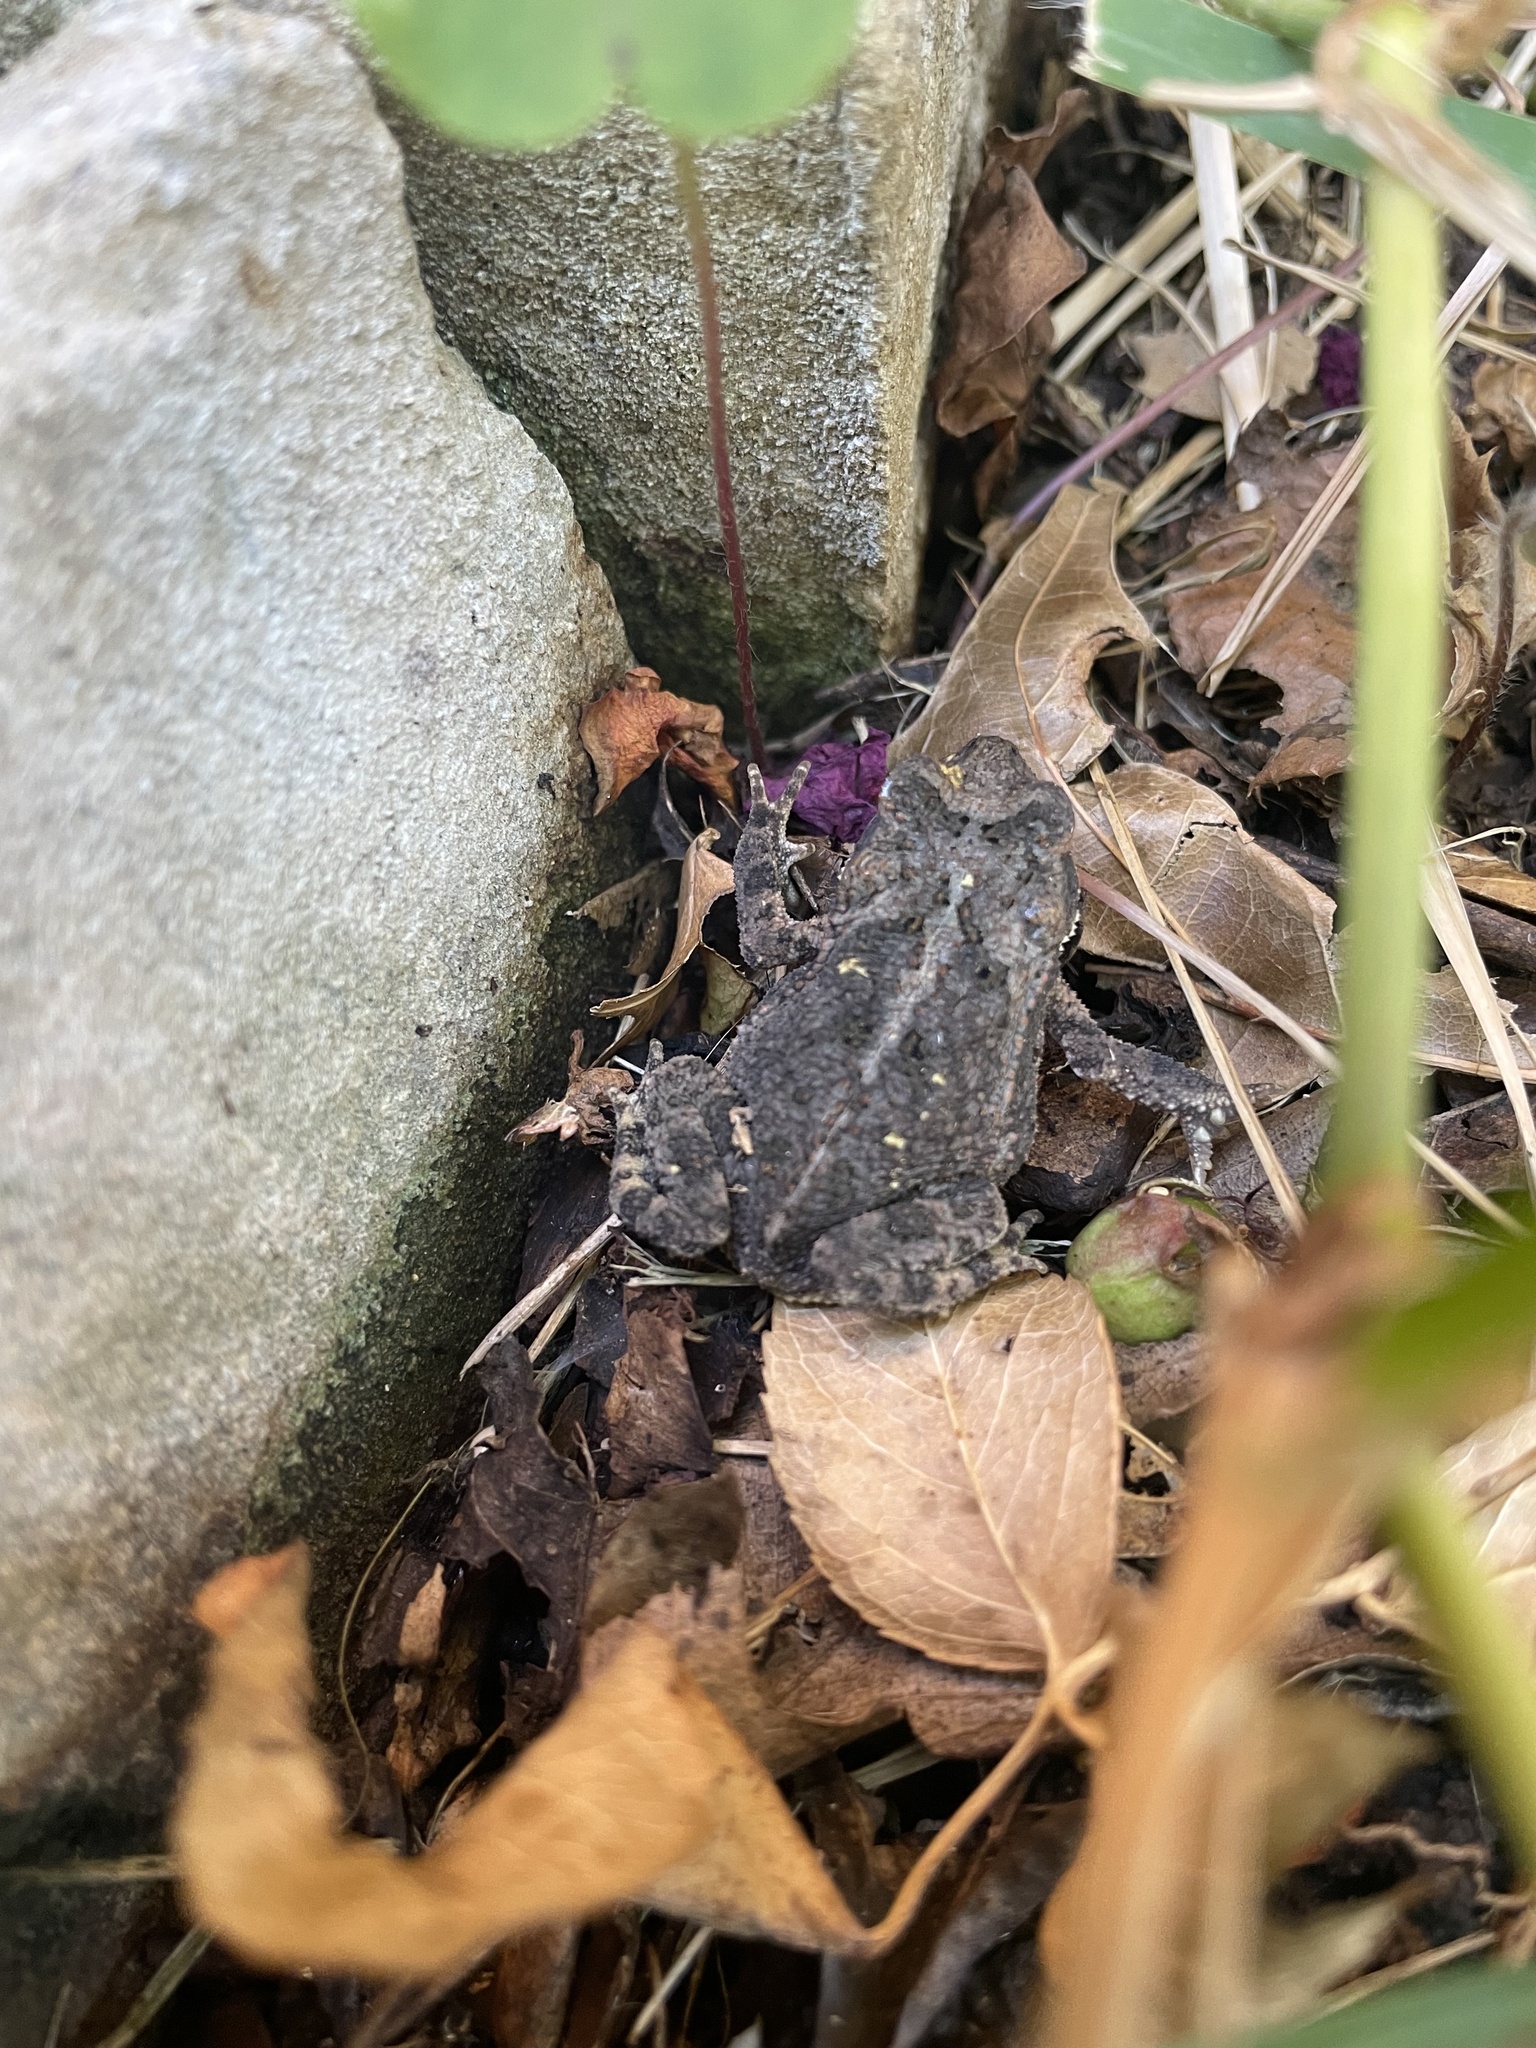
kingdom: Animalia
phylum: Chordata
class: Amphibia
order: Anura
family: Bufonidae
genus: Incilius
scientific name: Incilius nebulifer
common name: Gulf coast toad
